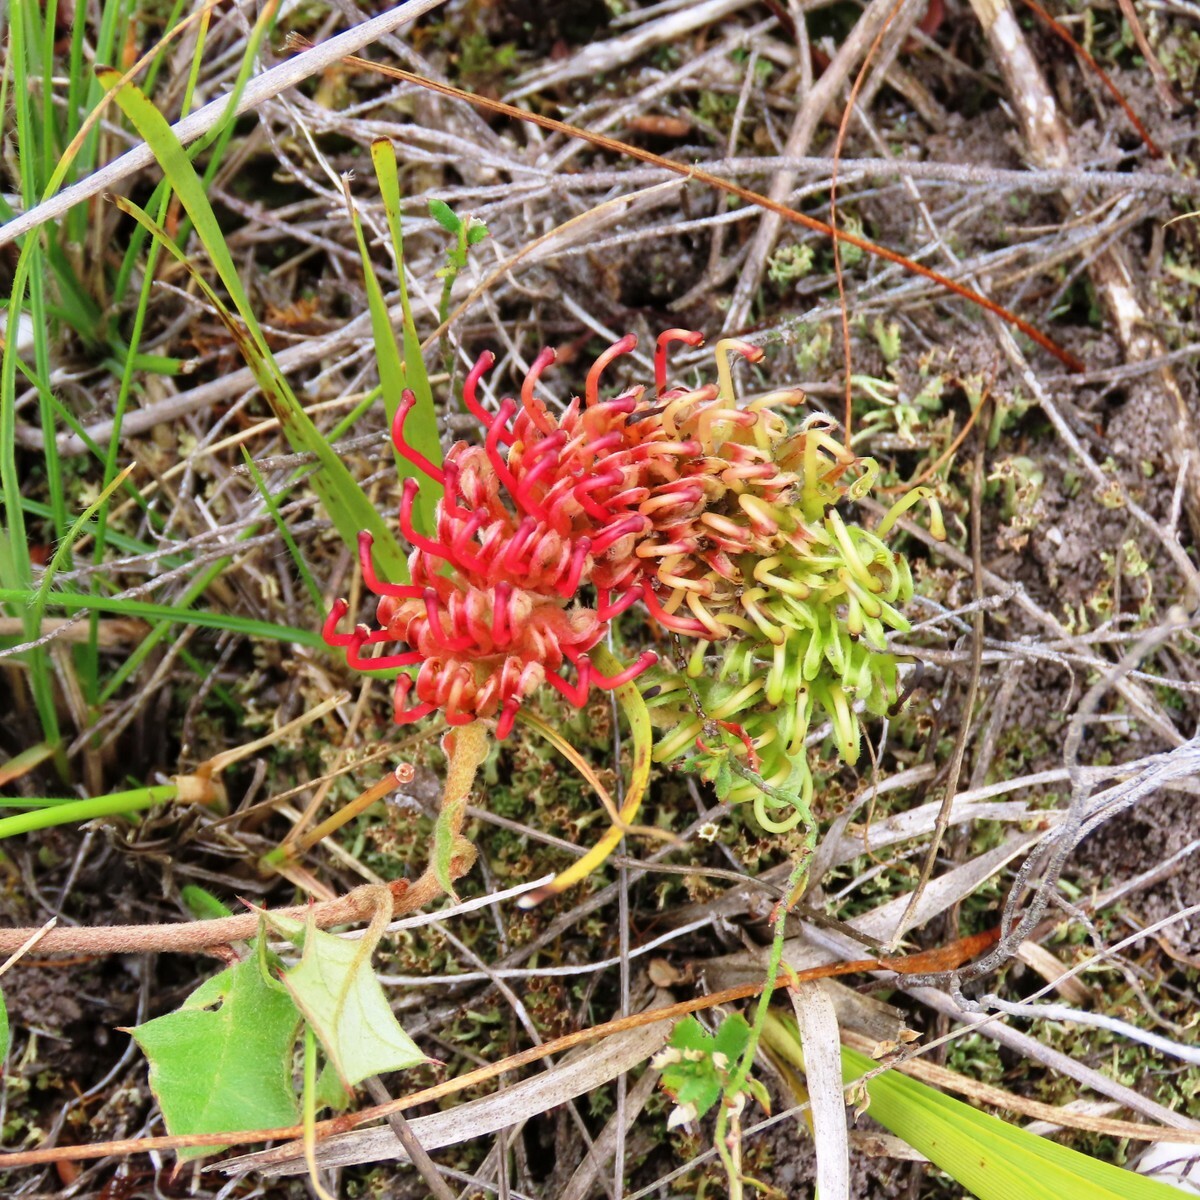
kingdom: Plantae
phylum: Tracheophyta
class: Magnoliopsida
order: Proteales
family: Proteaceae
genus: Grevillea
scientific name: Grevillea bedggoodiana
